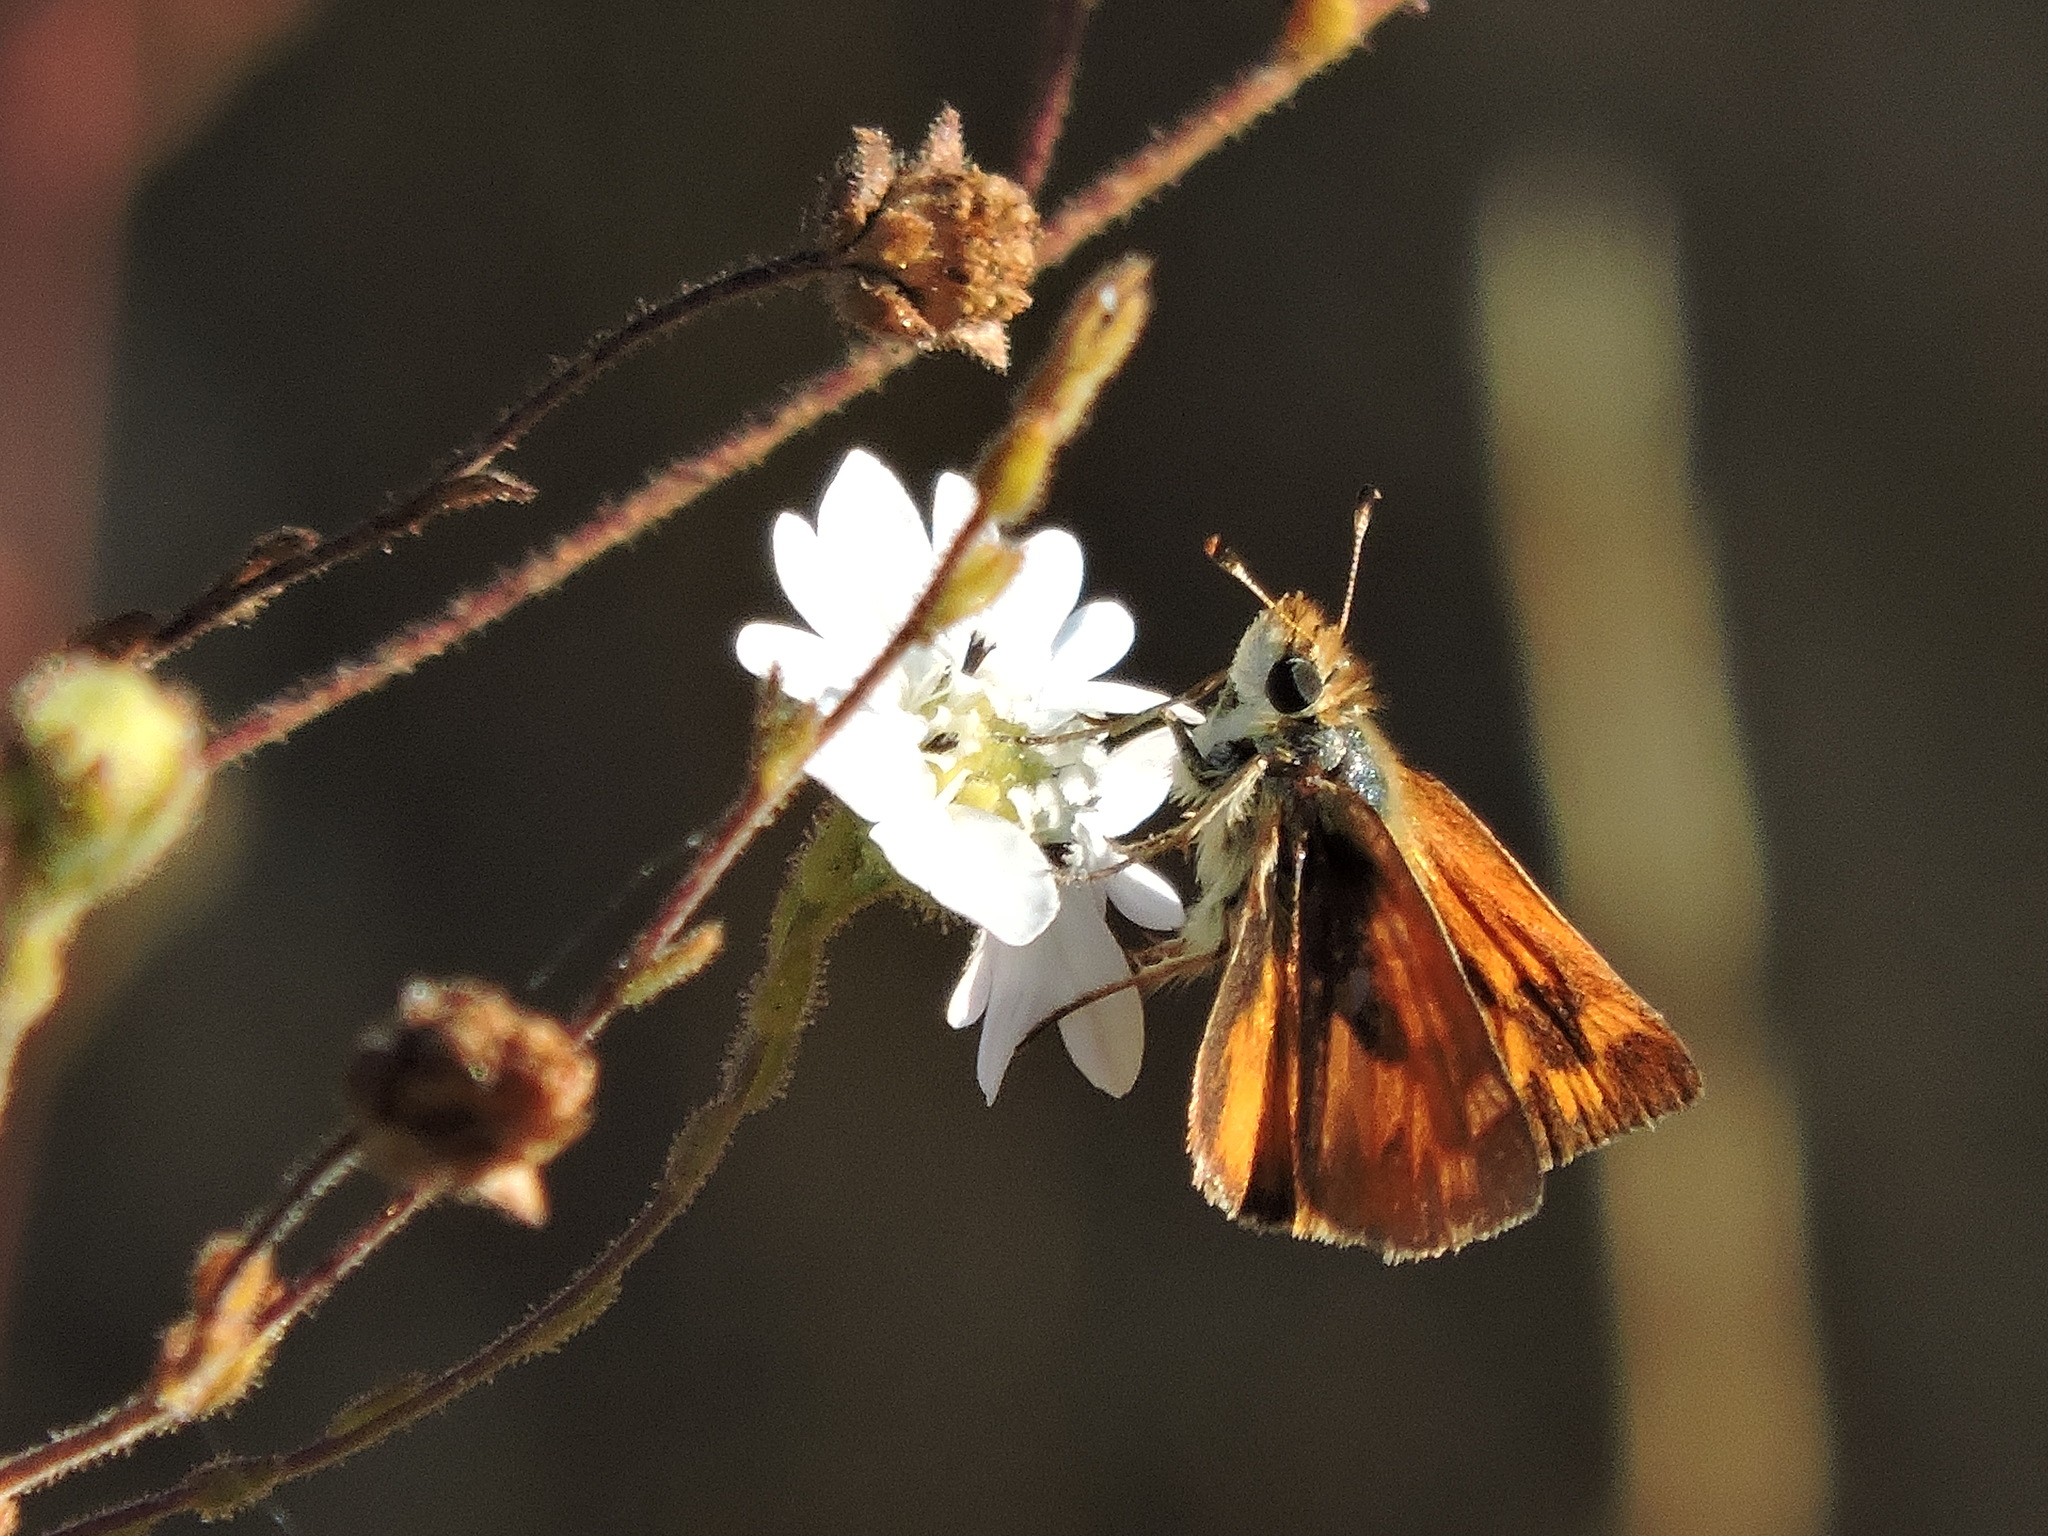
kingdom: Animalia
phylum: Arthropoda
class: Insecta
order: Lepidoptera
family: Hesperiidae
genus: Lon
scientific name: Lon melane
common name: Umber skipper
